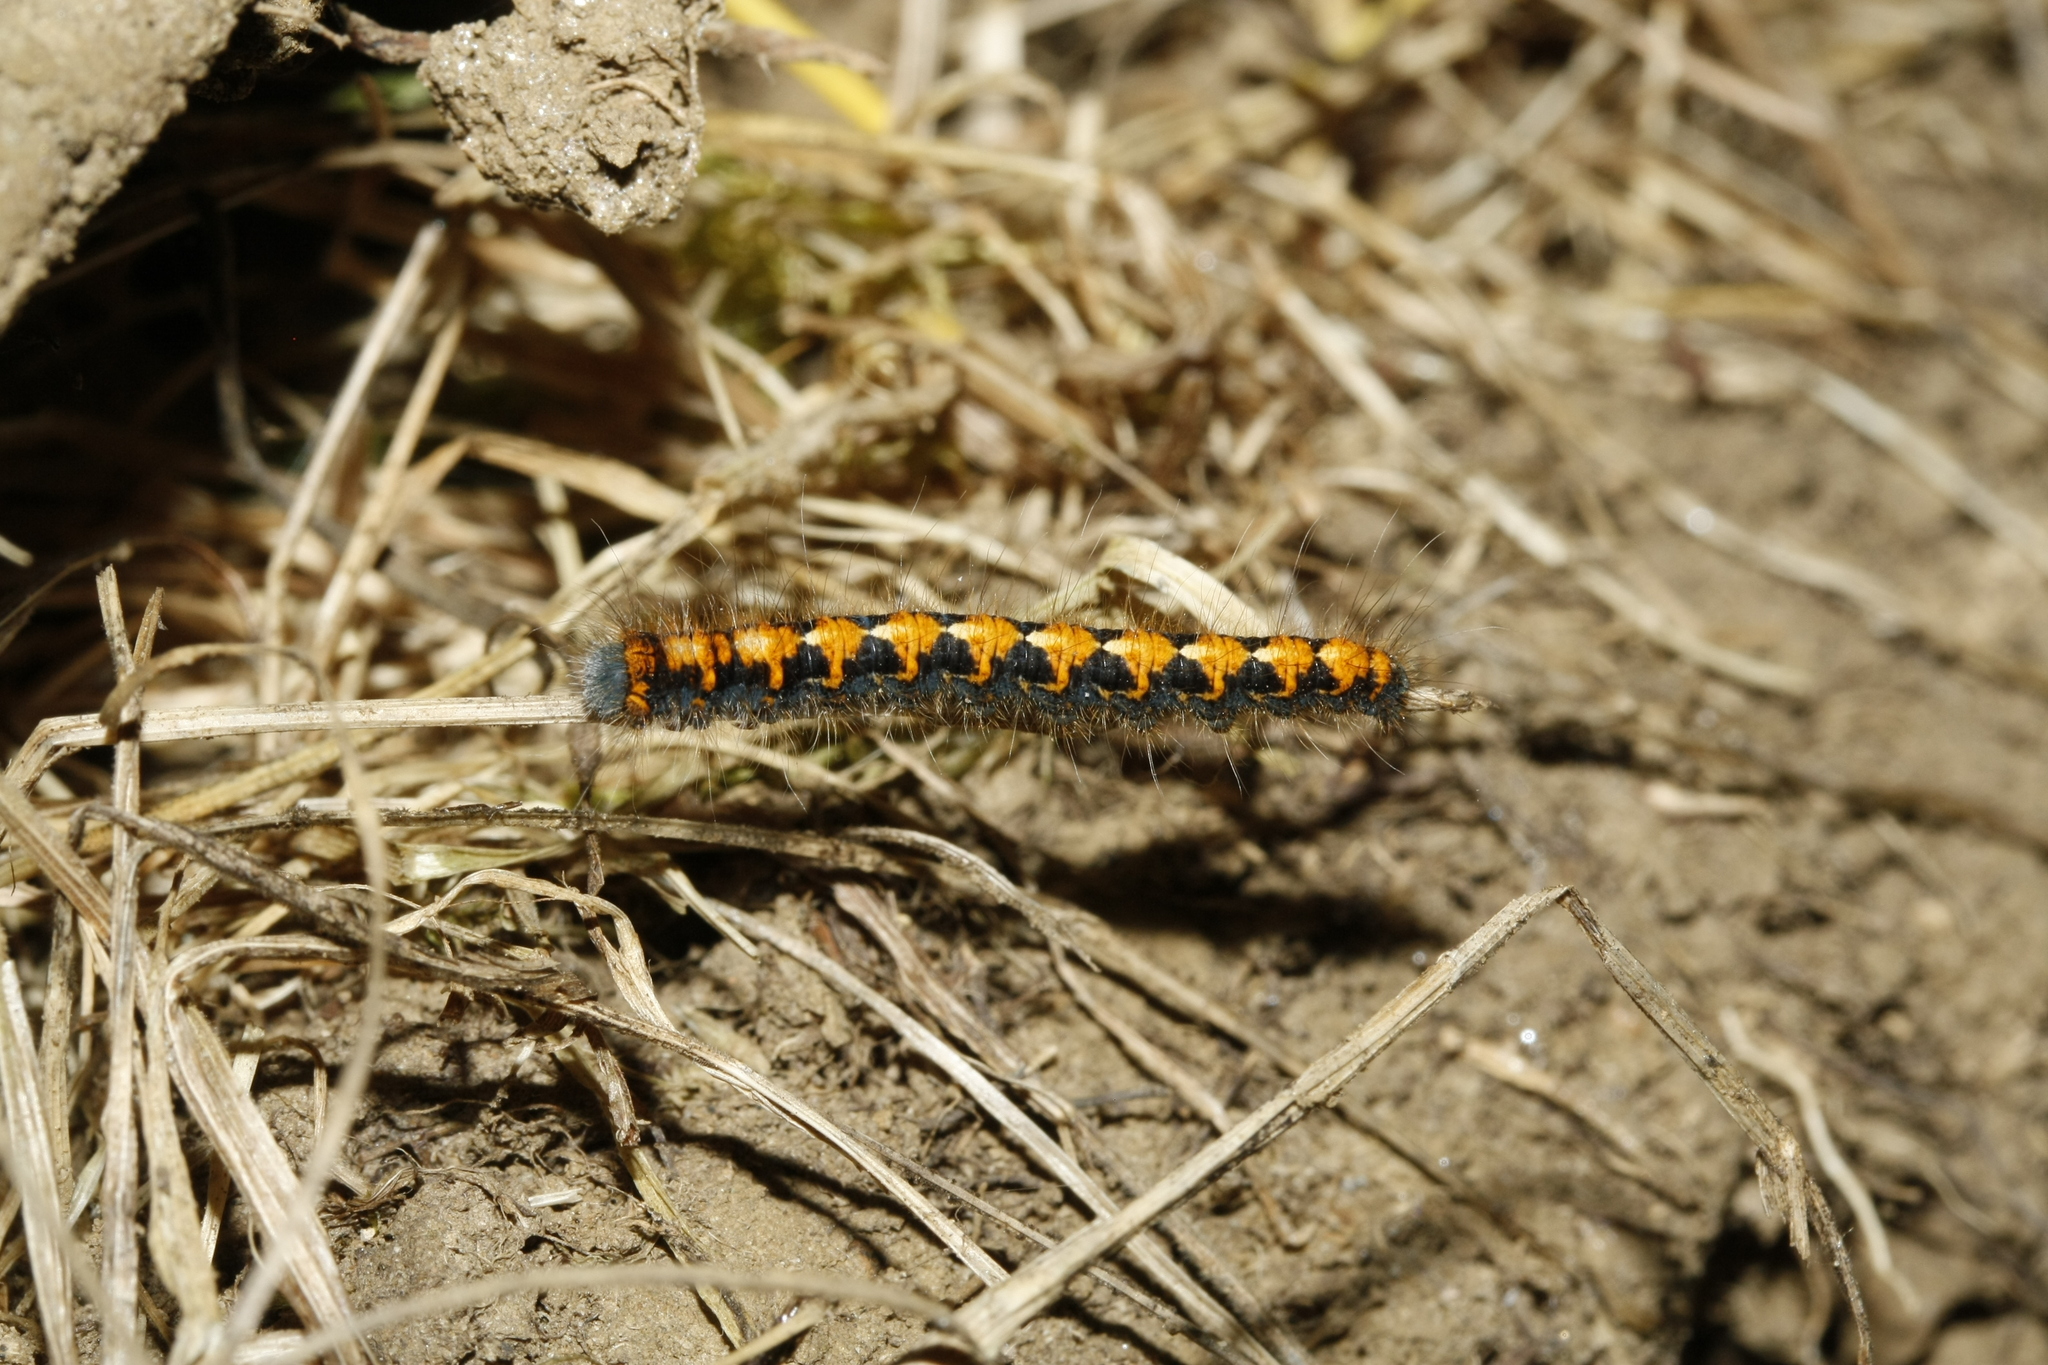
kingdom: Animalia
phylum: Arthropoda
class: Insecta
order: Lepidoptera
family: Lasiocampidae
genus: Lasiocampa
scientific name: Lasiocampa quercus
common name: Oak eggar
